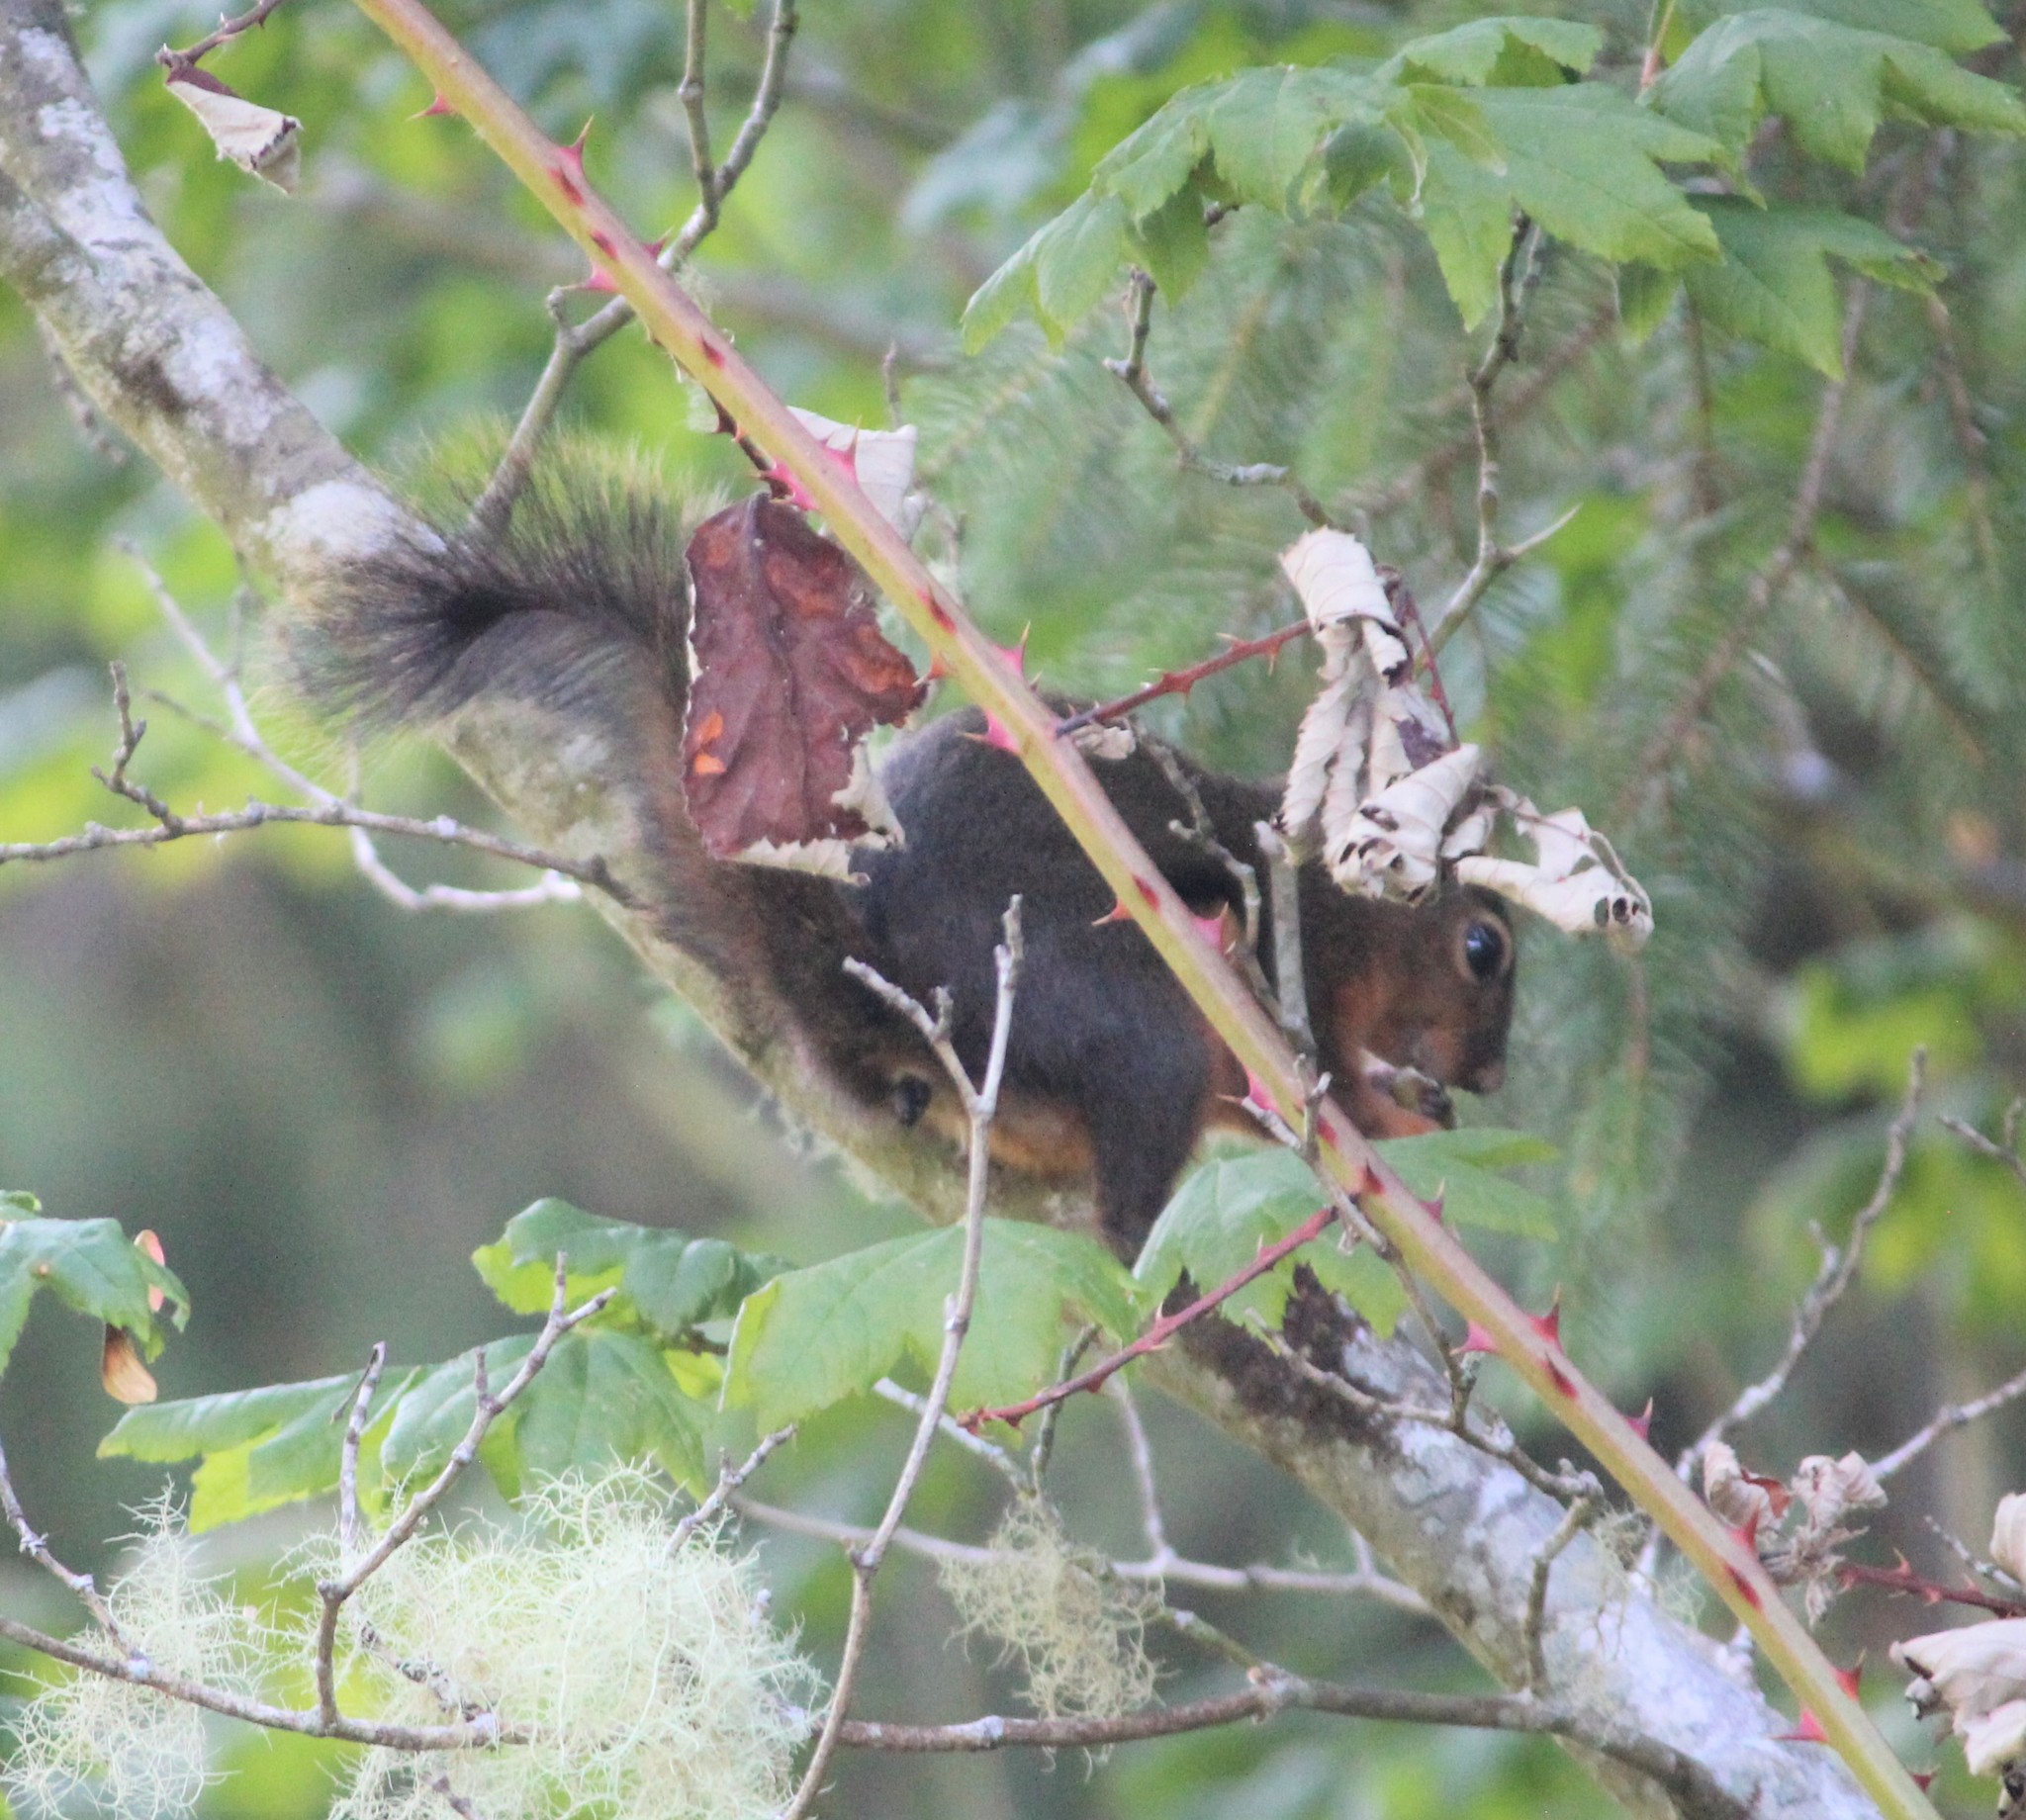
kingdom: Animalia
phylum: Chordata
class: Mammalia
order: Rodentia
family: Sciuridae
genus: Tamiasciurus
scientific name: Tamiasciurus douglasii
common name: Douglas's squirrel
